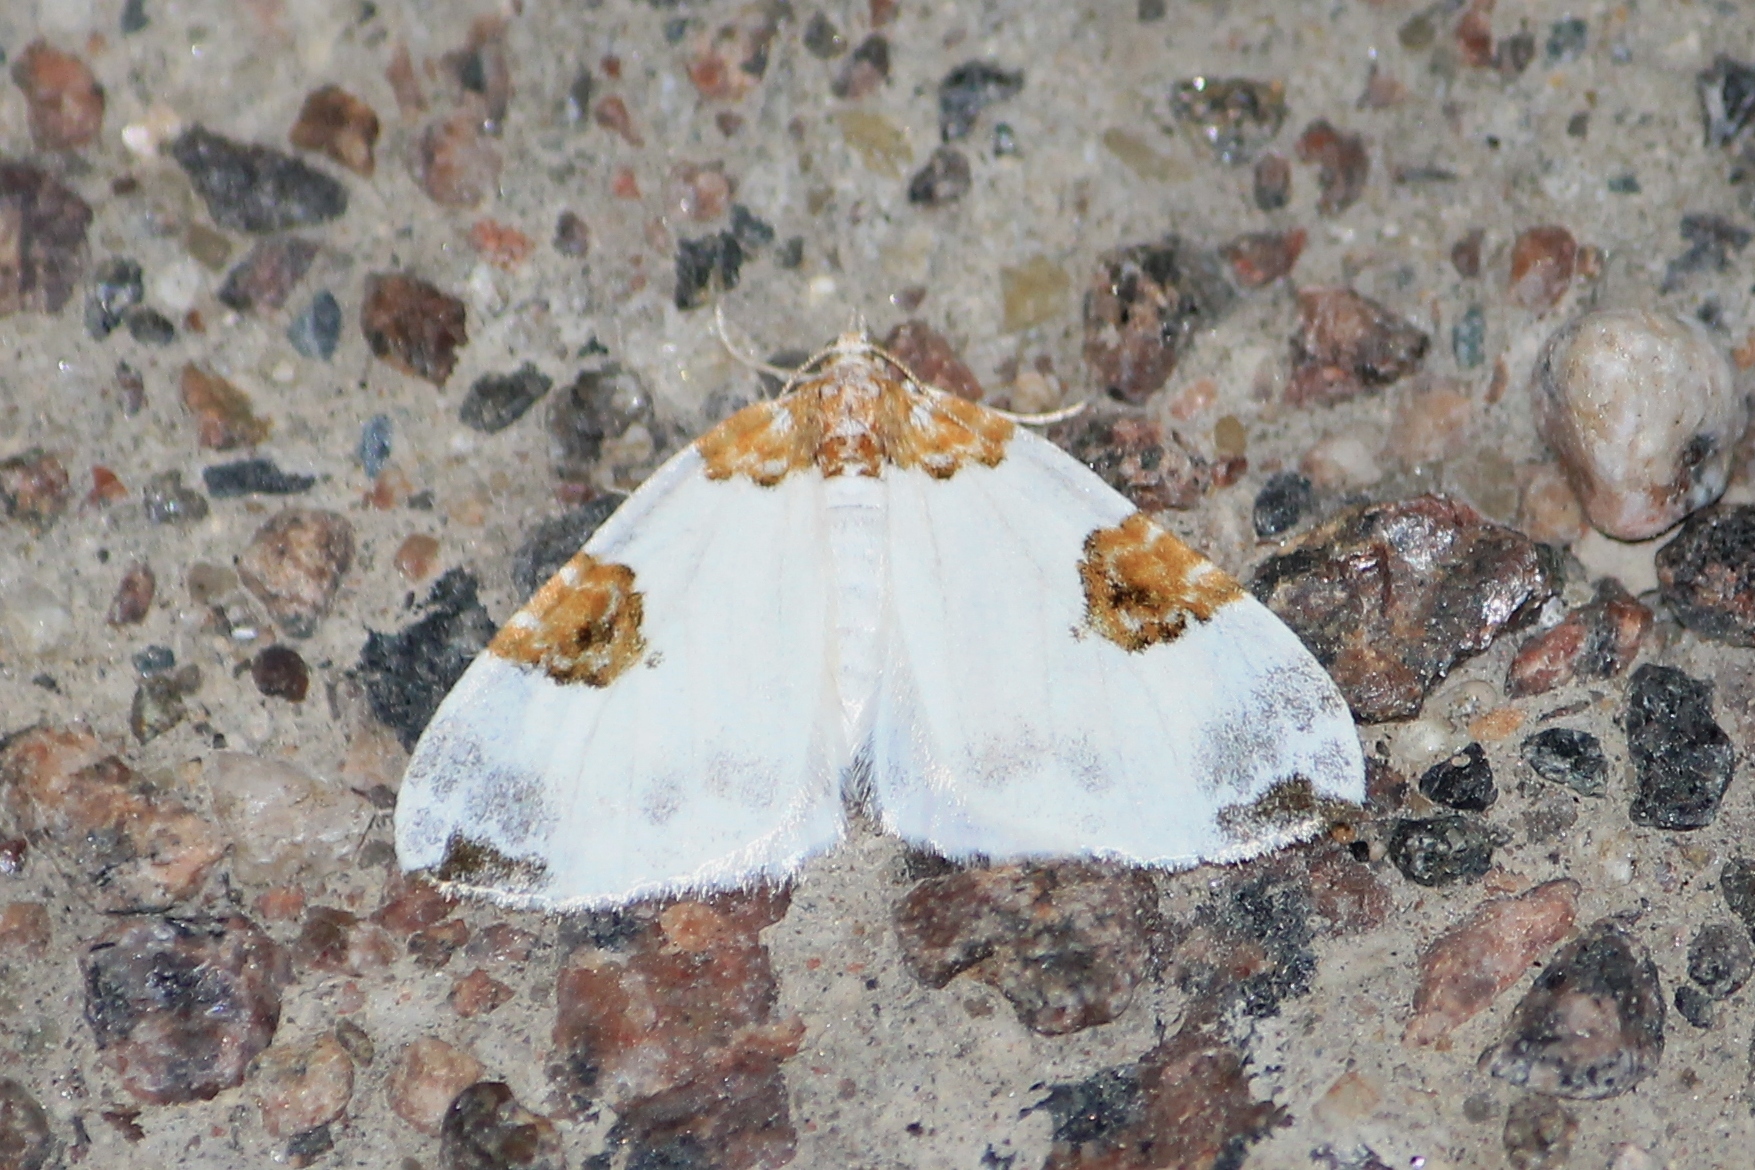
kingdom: Animalia
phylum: Arthropoda
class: Insecta
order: Lepidoptera
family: Geometridae
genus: Plemyria
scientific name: Plemyria rubiginata
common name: Blue-bordered carpet
